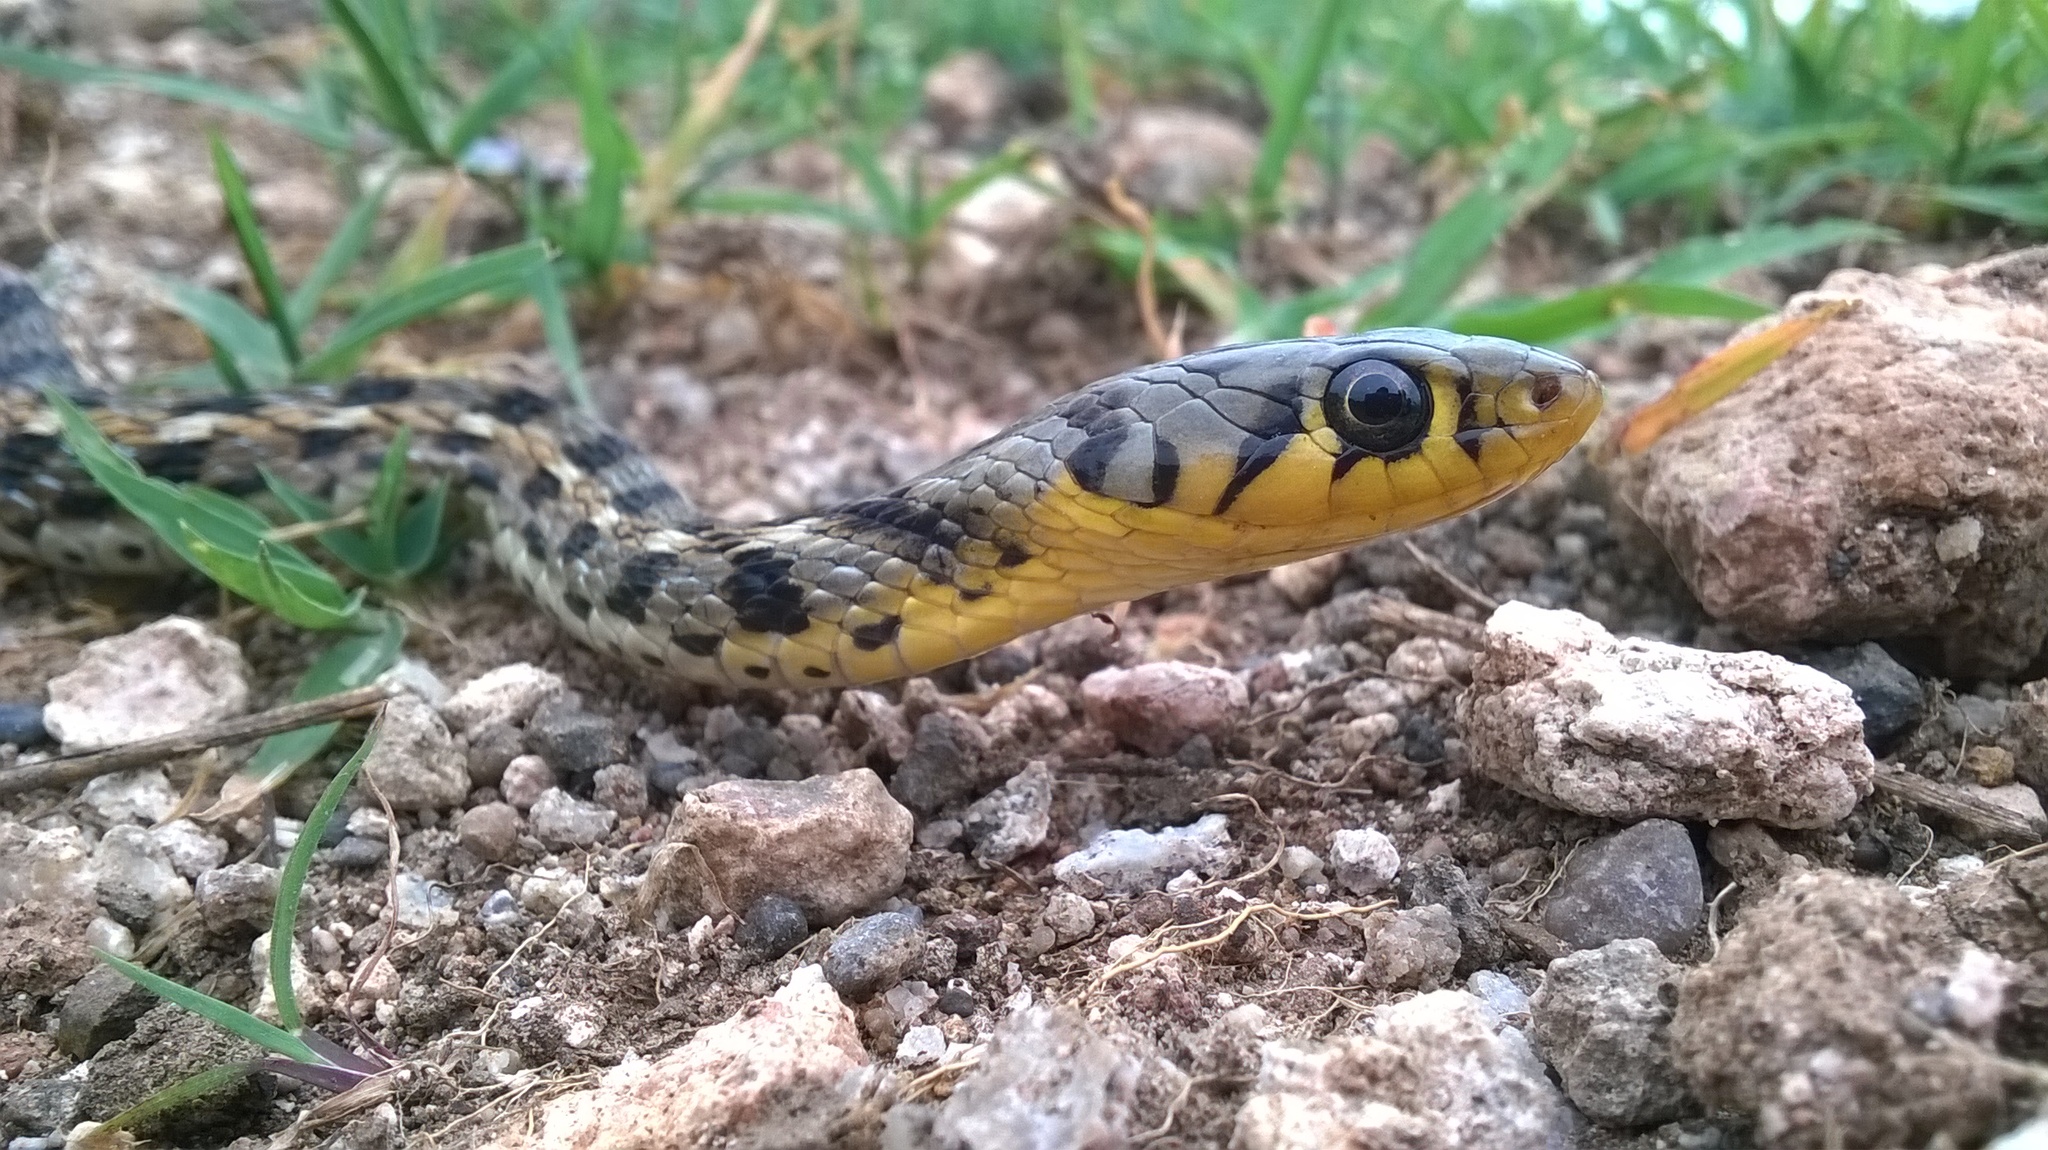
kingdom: Animalia
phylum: Chordata
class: Squamata
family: Colubridae
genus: Amphiesma
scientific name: Amphiesma stolatum
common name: Buff striped keelback
